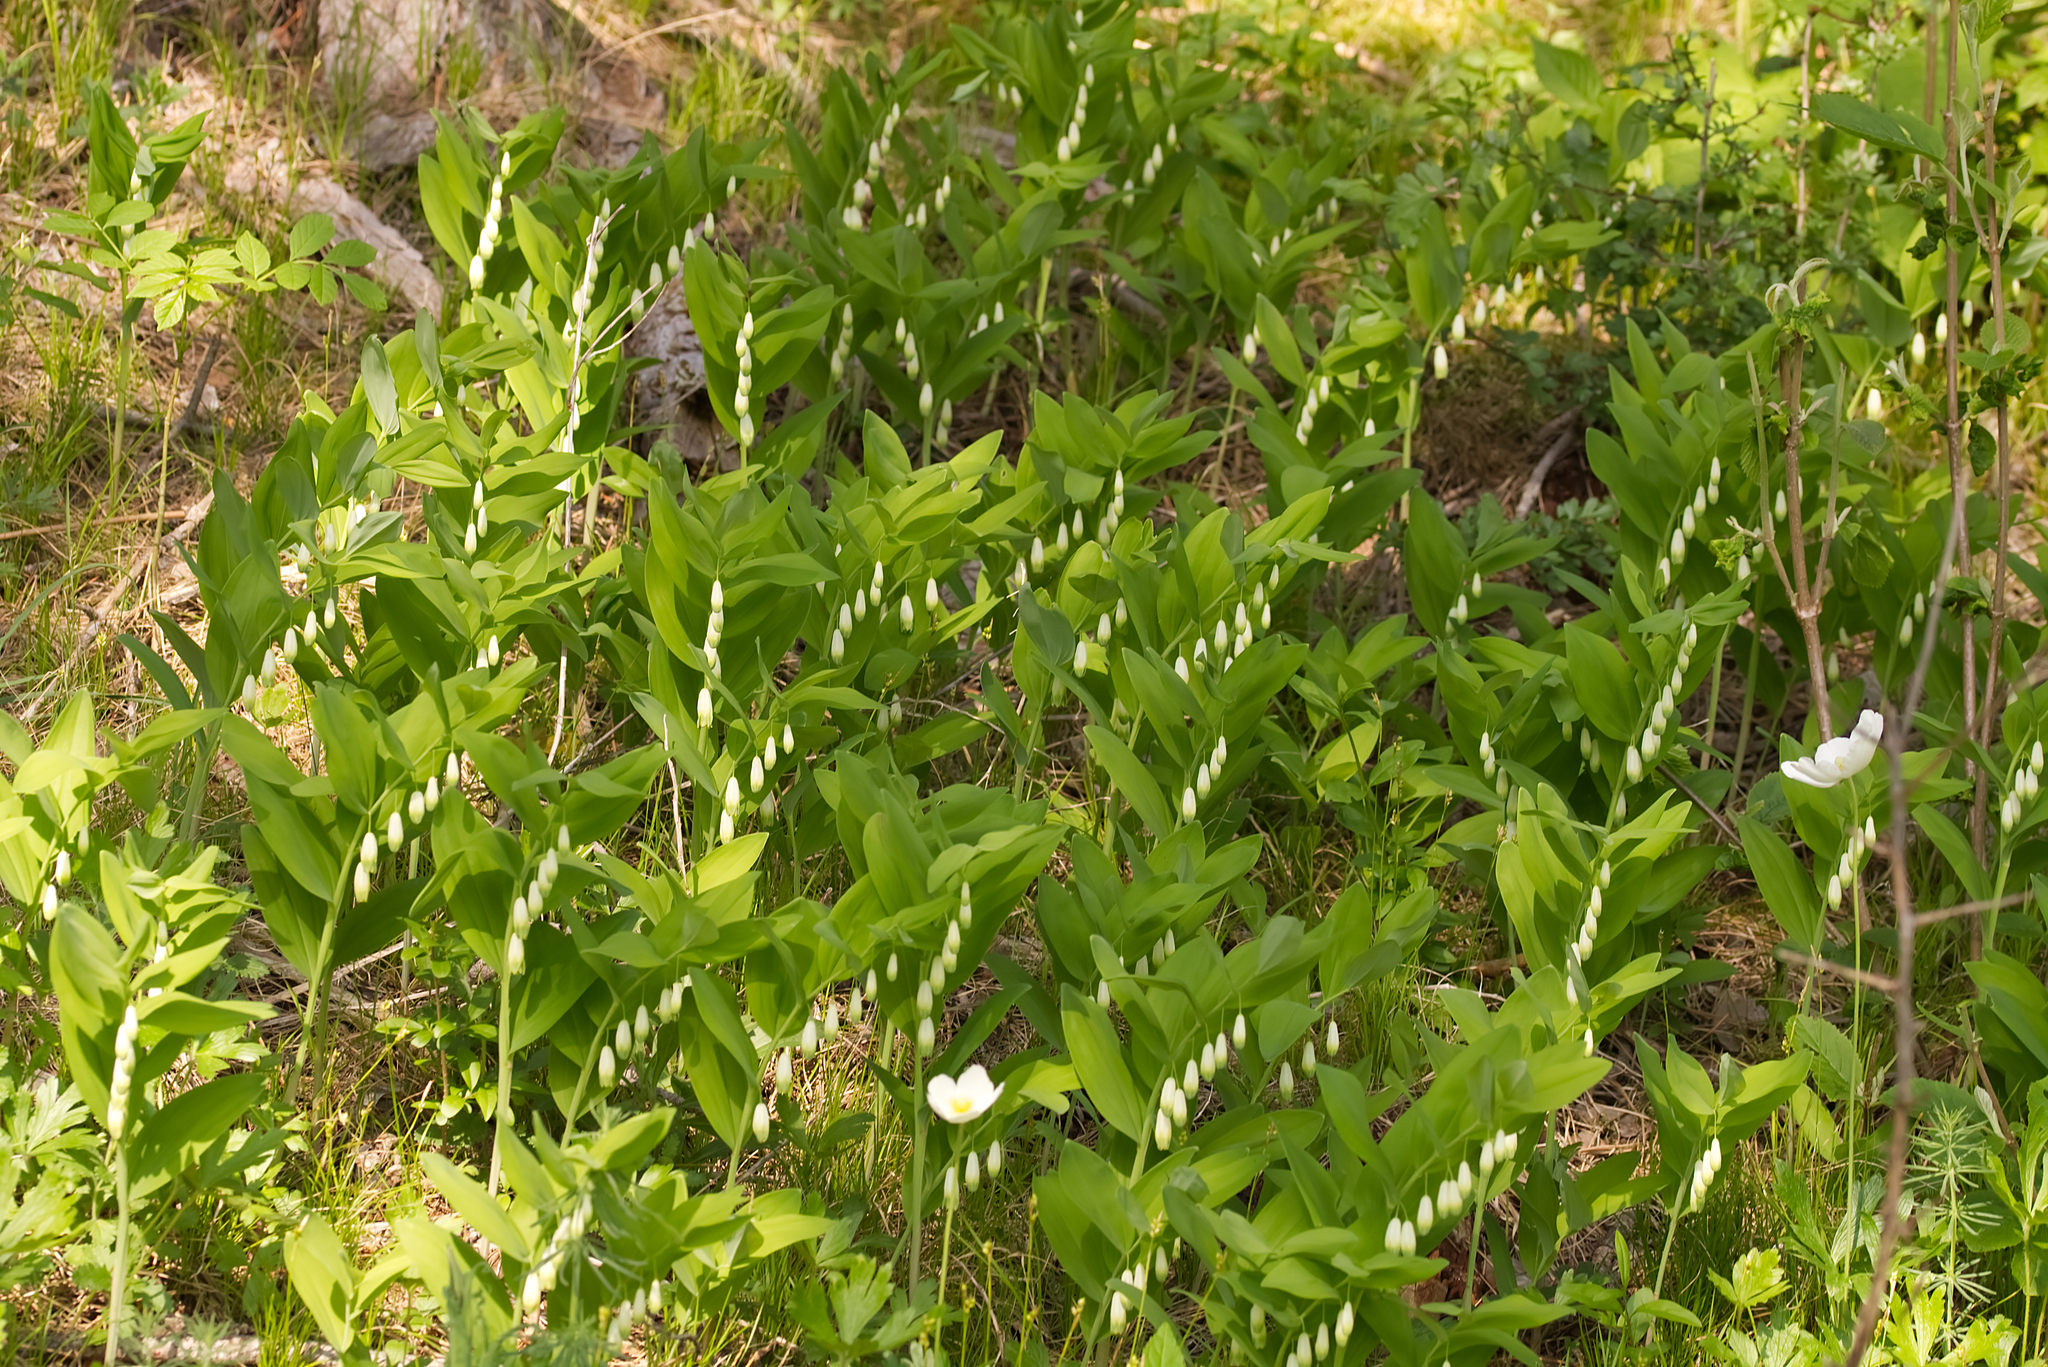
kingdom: Plantae
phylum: Tracheophyta
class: Liliopsida
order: Asparagales
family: Asparagaceae
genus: Polygonatum
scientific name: Polygonatum odoratum
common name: Angular solomon's-seal
